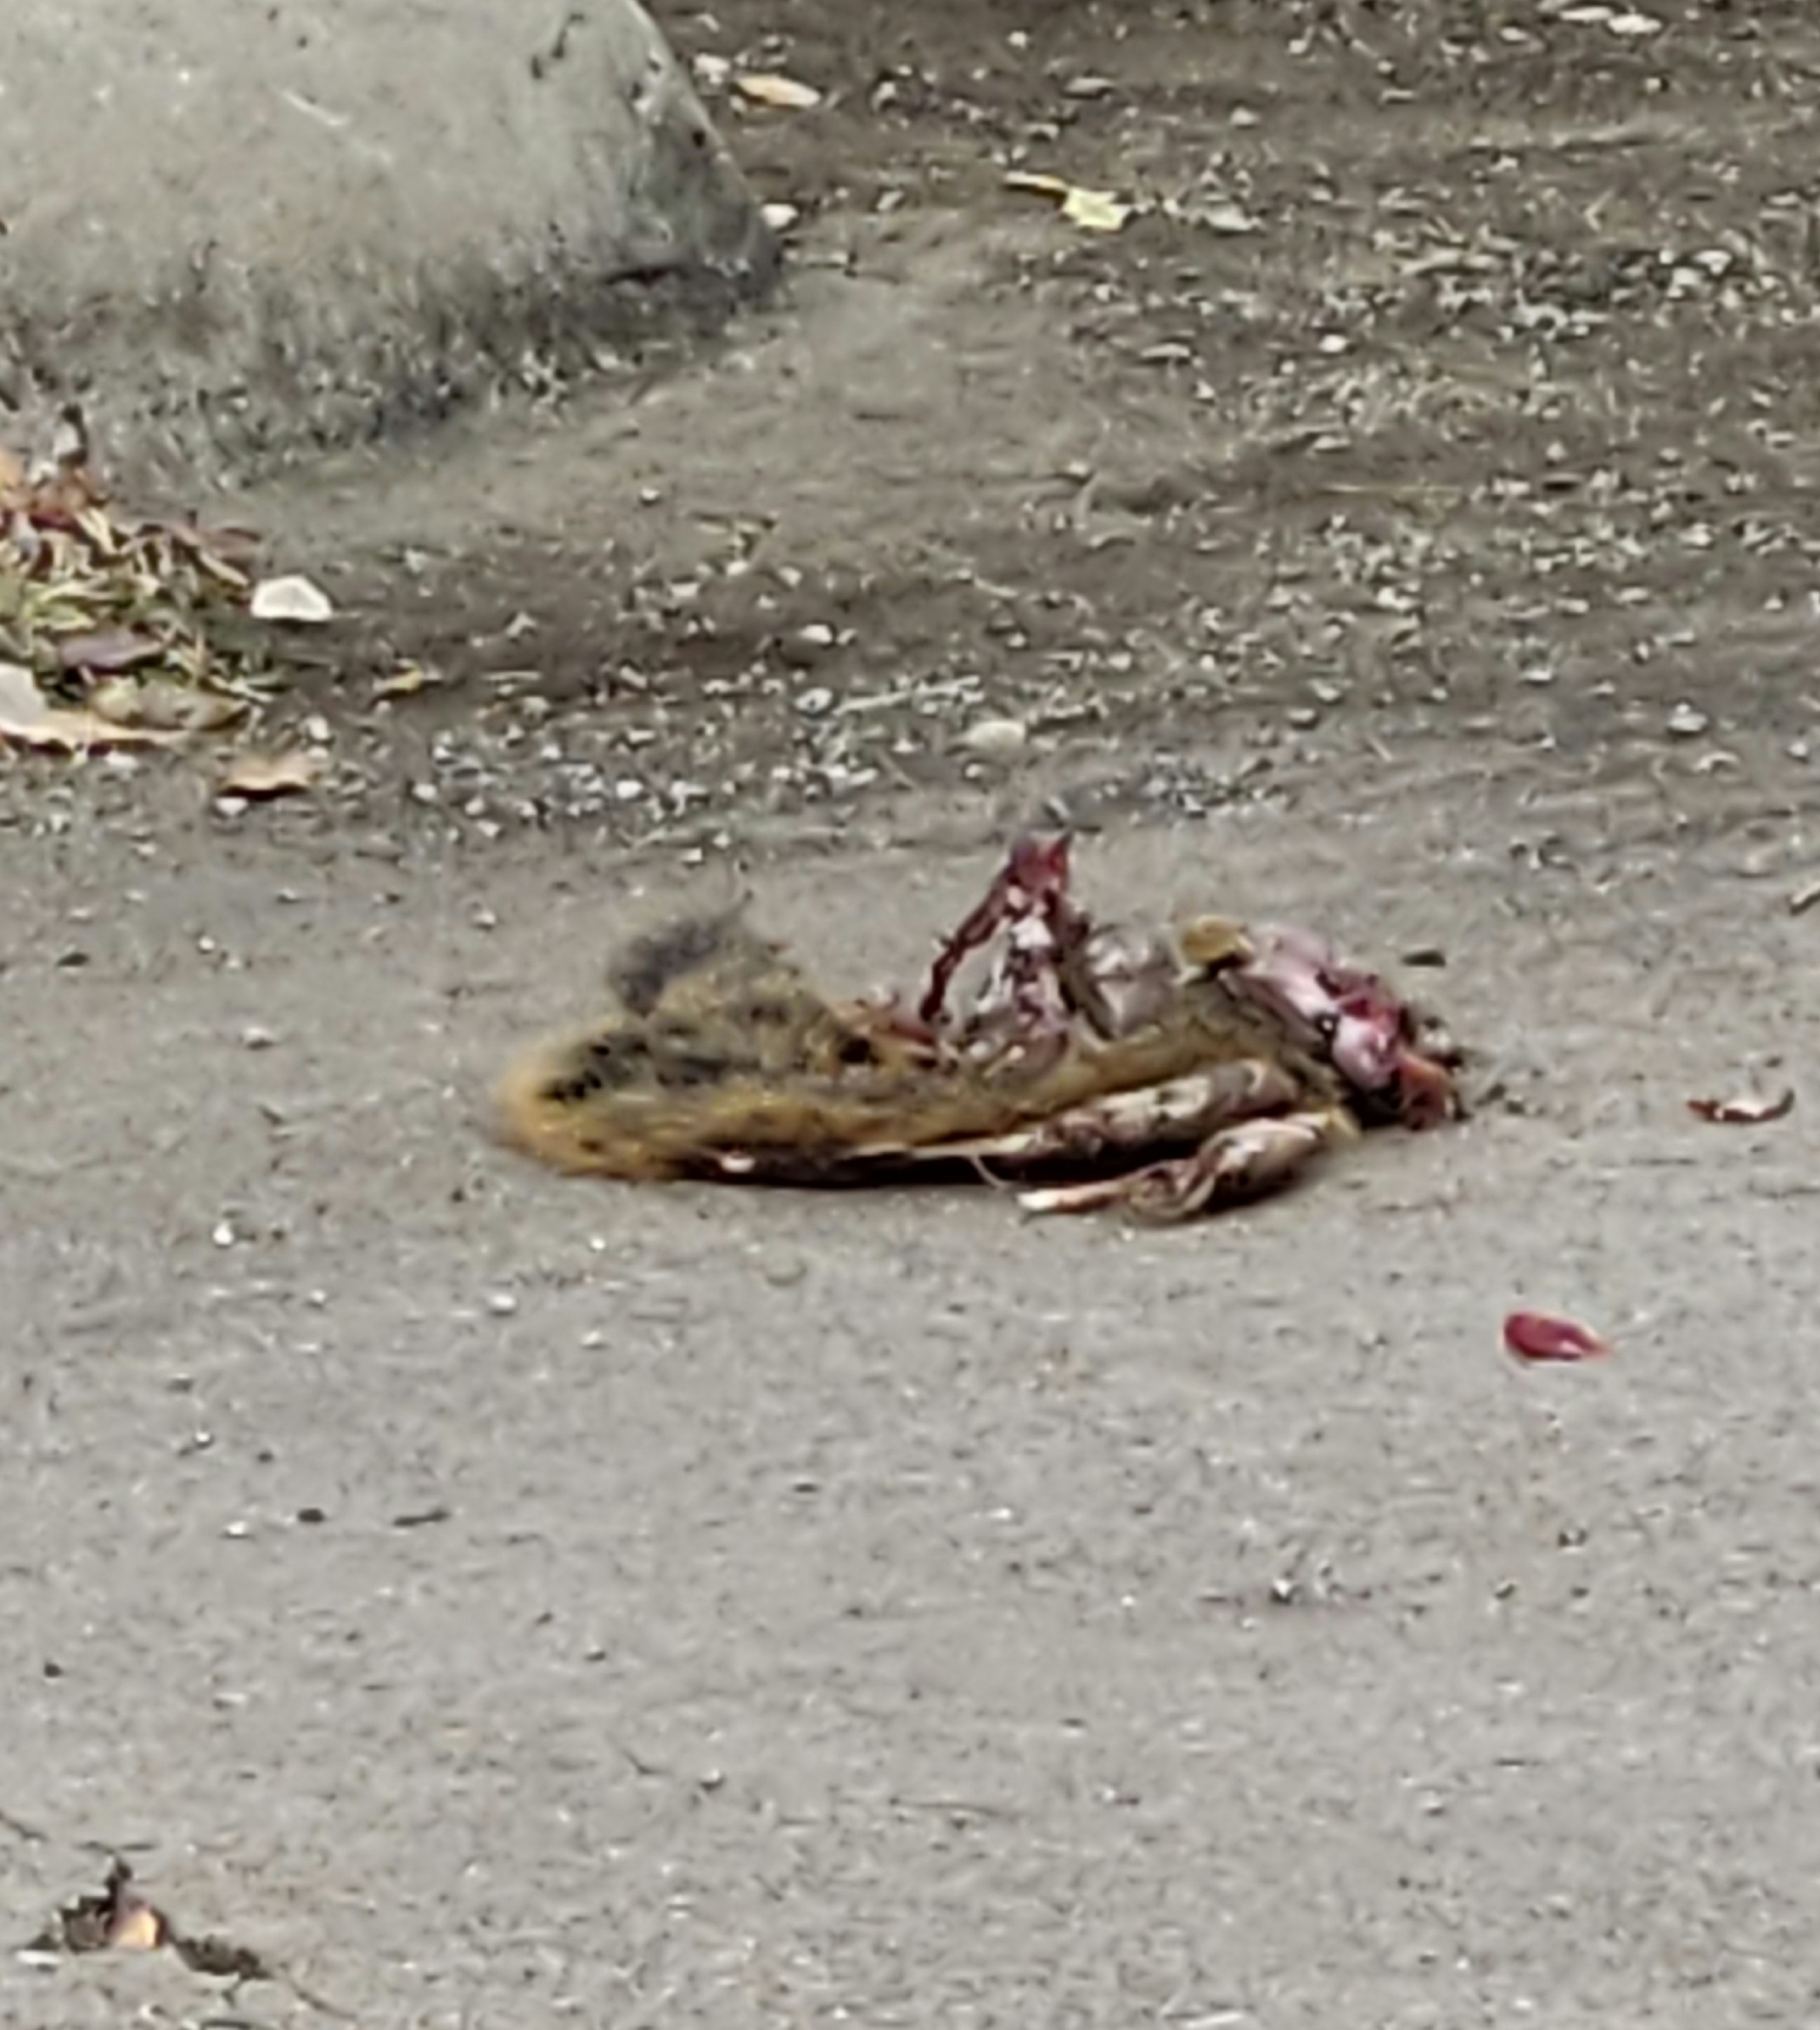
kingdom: Animalia
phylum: Chordata
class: Mammalia
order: Rodentia
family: Sciuridae
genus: Sciurus
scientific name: Sciurus niger
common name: Fox squirrel
